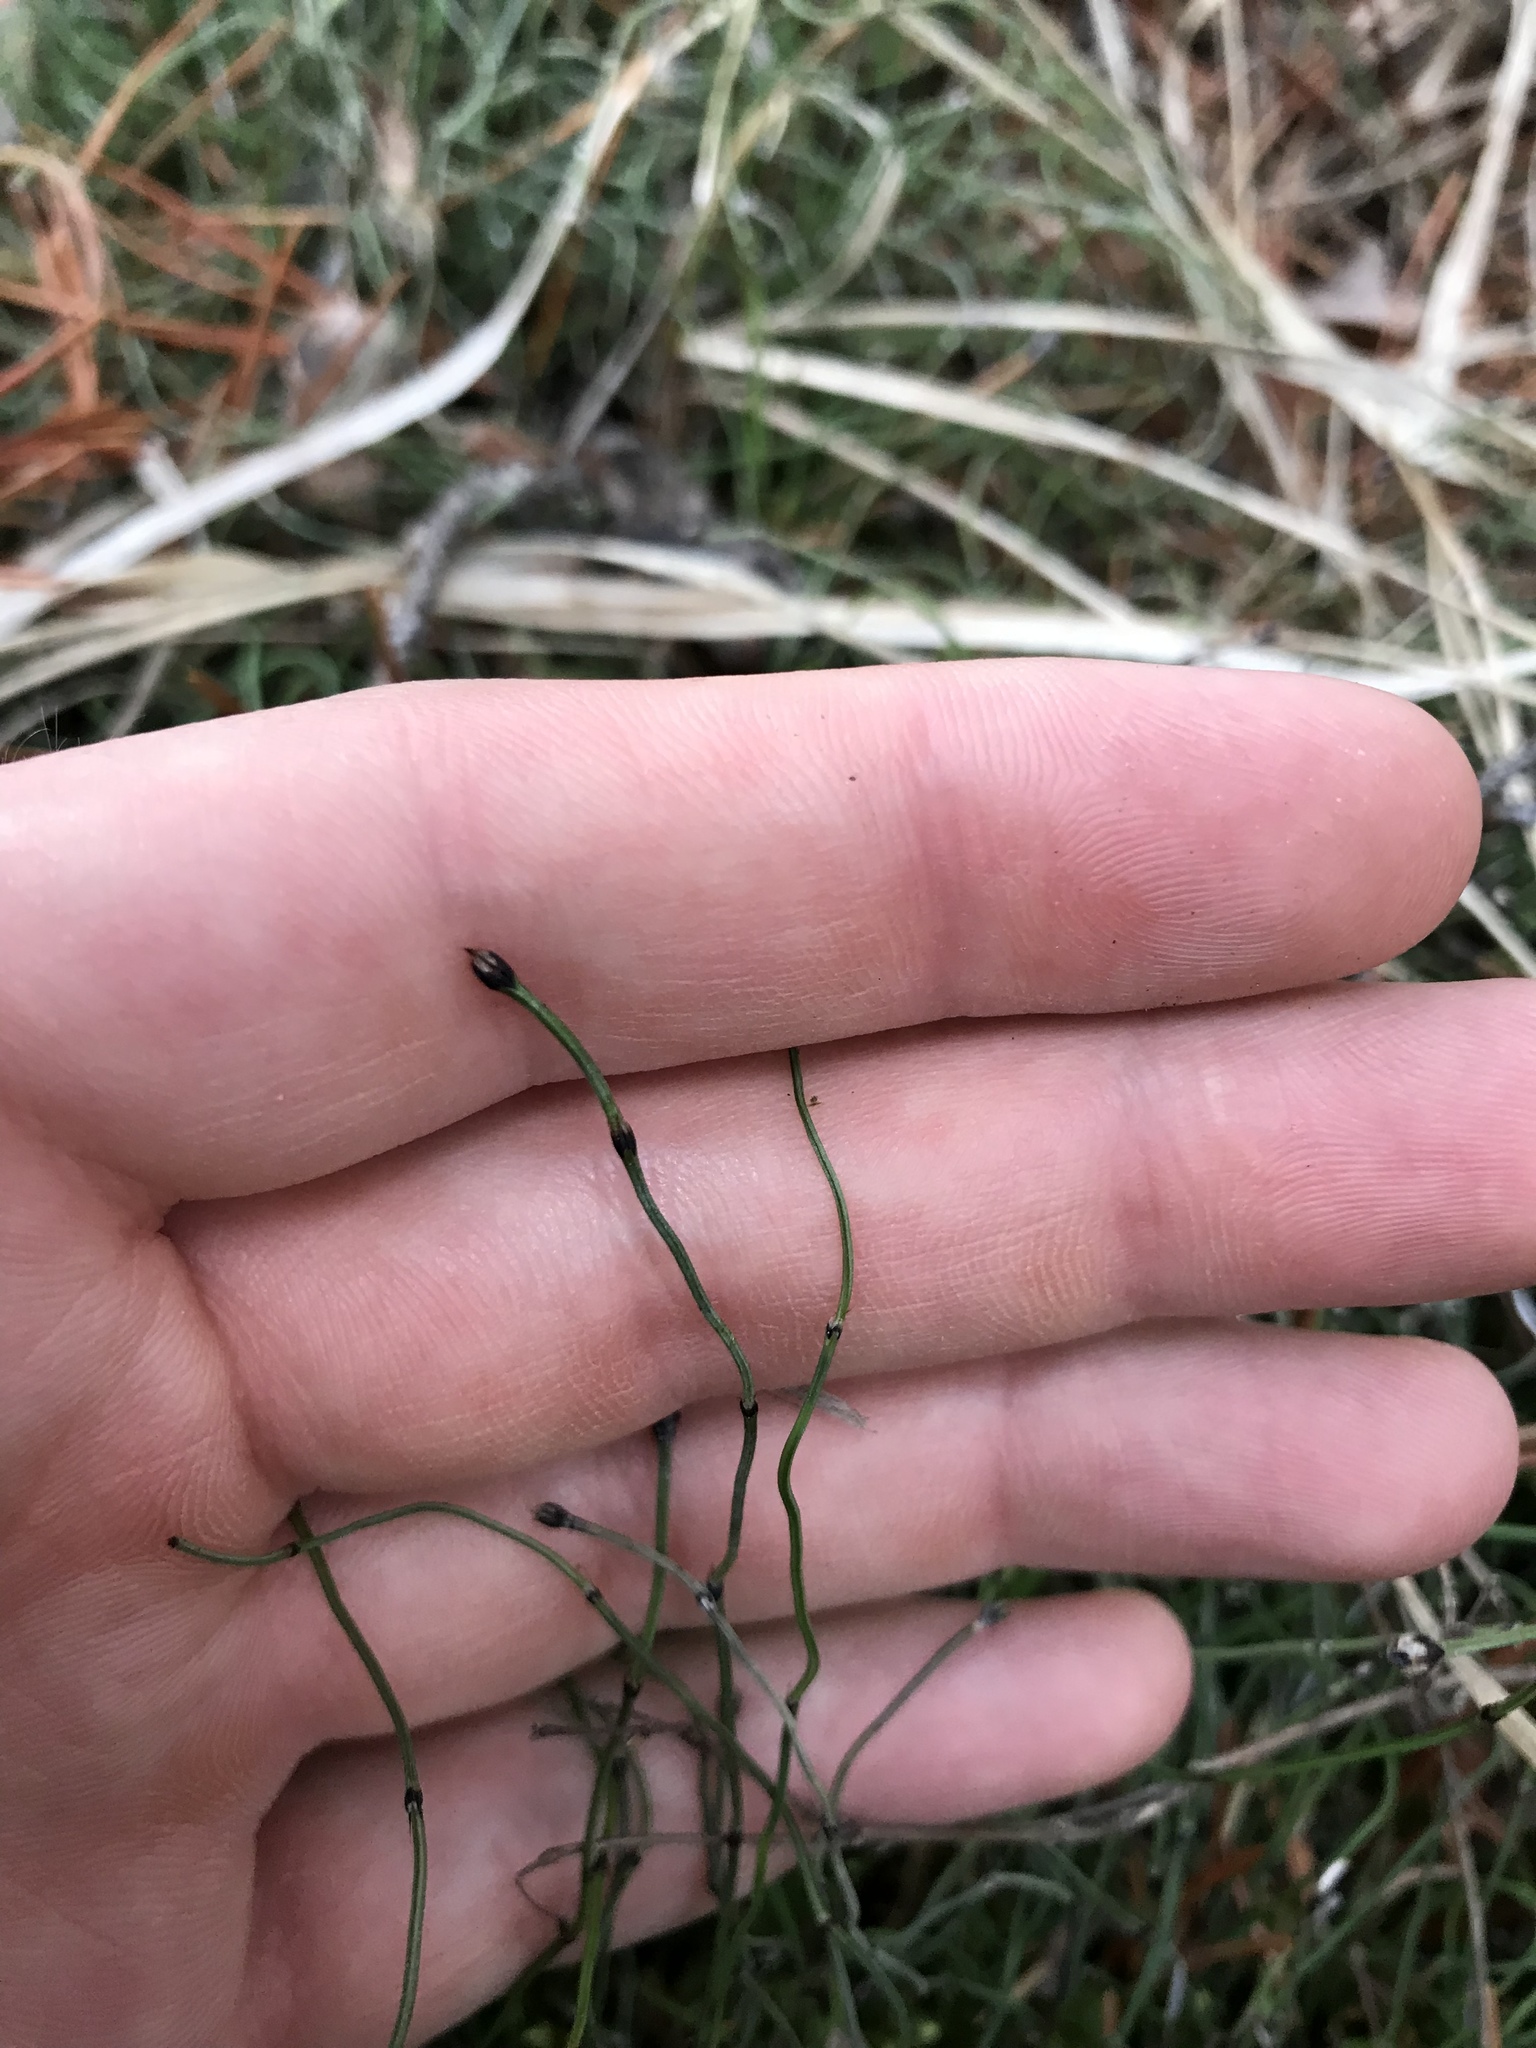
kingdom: Plantae
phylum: Tracheophyta
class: Polypodiopsida
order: Equisetales
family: Equisetaceae
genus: Equisetum
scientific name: Equisetum scirpoides
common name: Delicate horsetail
